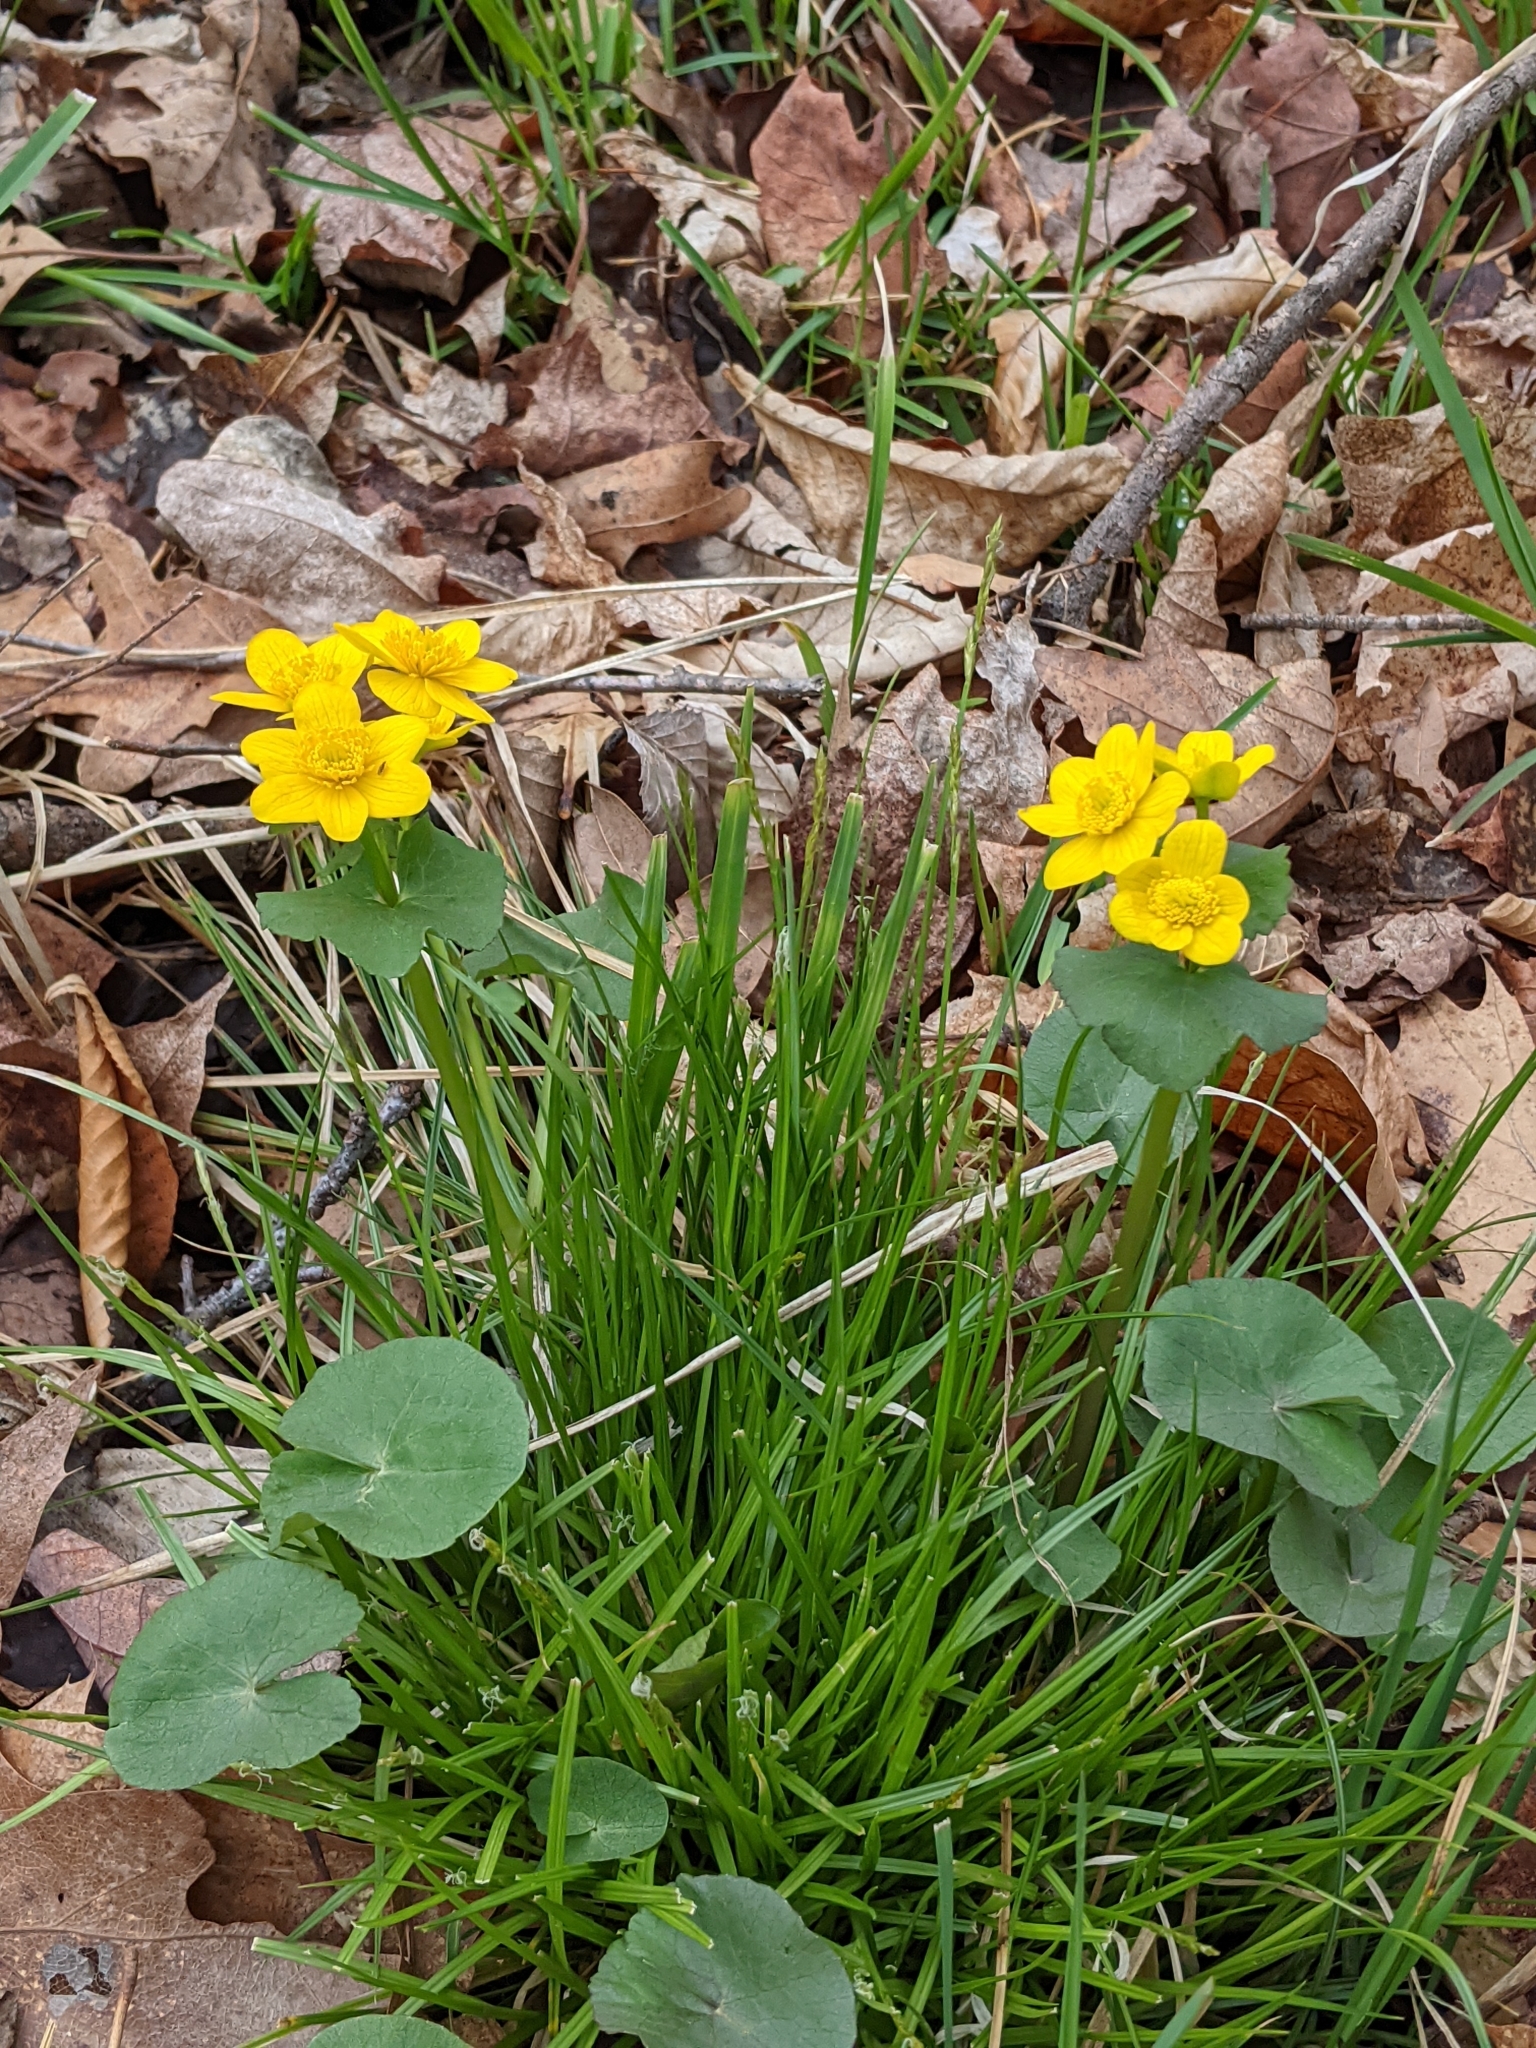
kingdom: Plantae
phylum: Tracheophyta
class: Magnoliopsida
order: Ranunculales
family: Ranunculaceae
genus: Caltha
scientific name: Caltha palustris
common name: Marsh marigold
